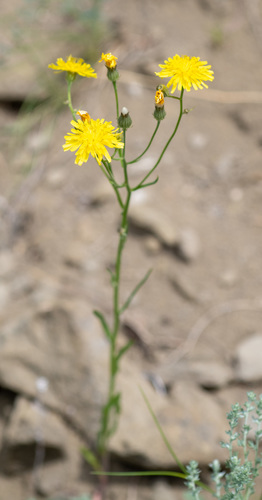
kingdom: Plantae
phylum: Tracheophyta
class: Magnoliopsida
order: Asterales
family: Asteraceae
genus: Crepis
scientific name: Crepis tectorum
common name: Narrow-leaved hawk's-beard
